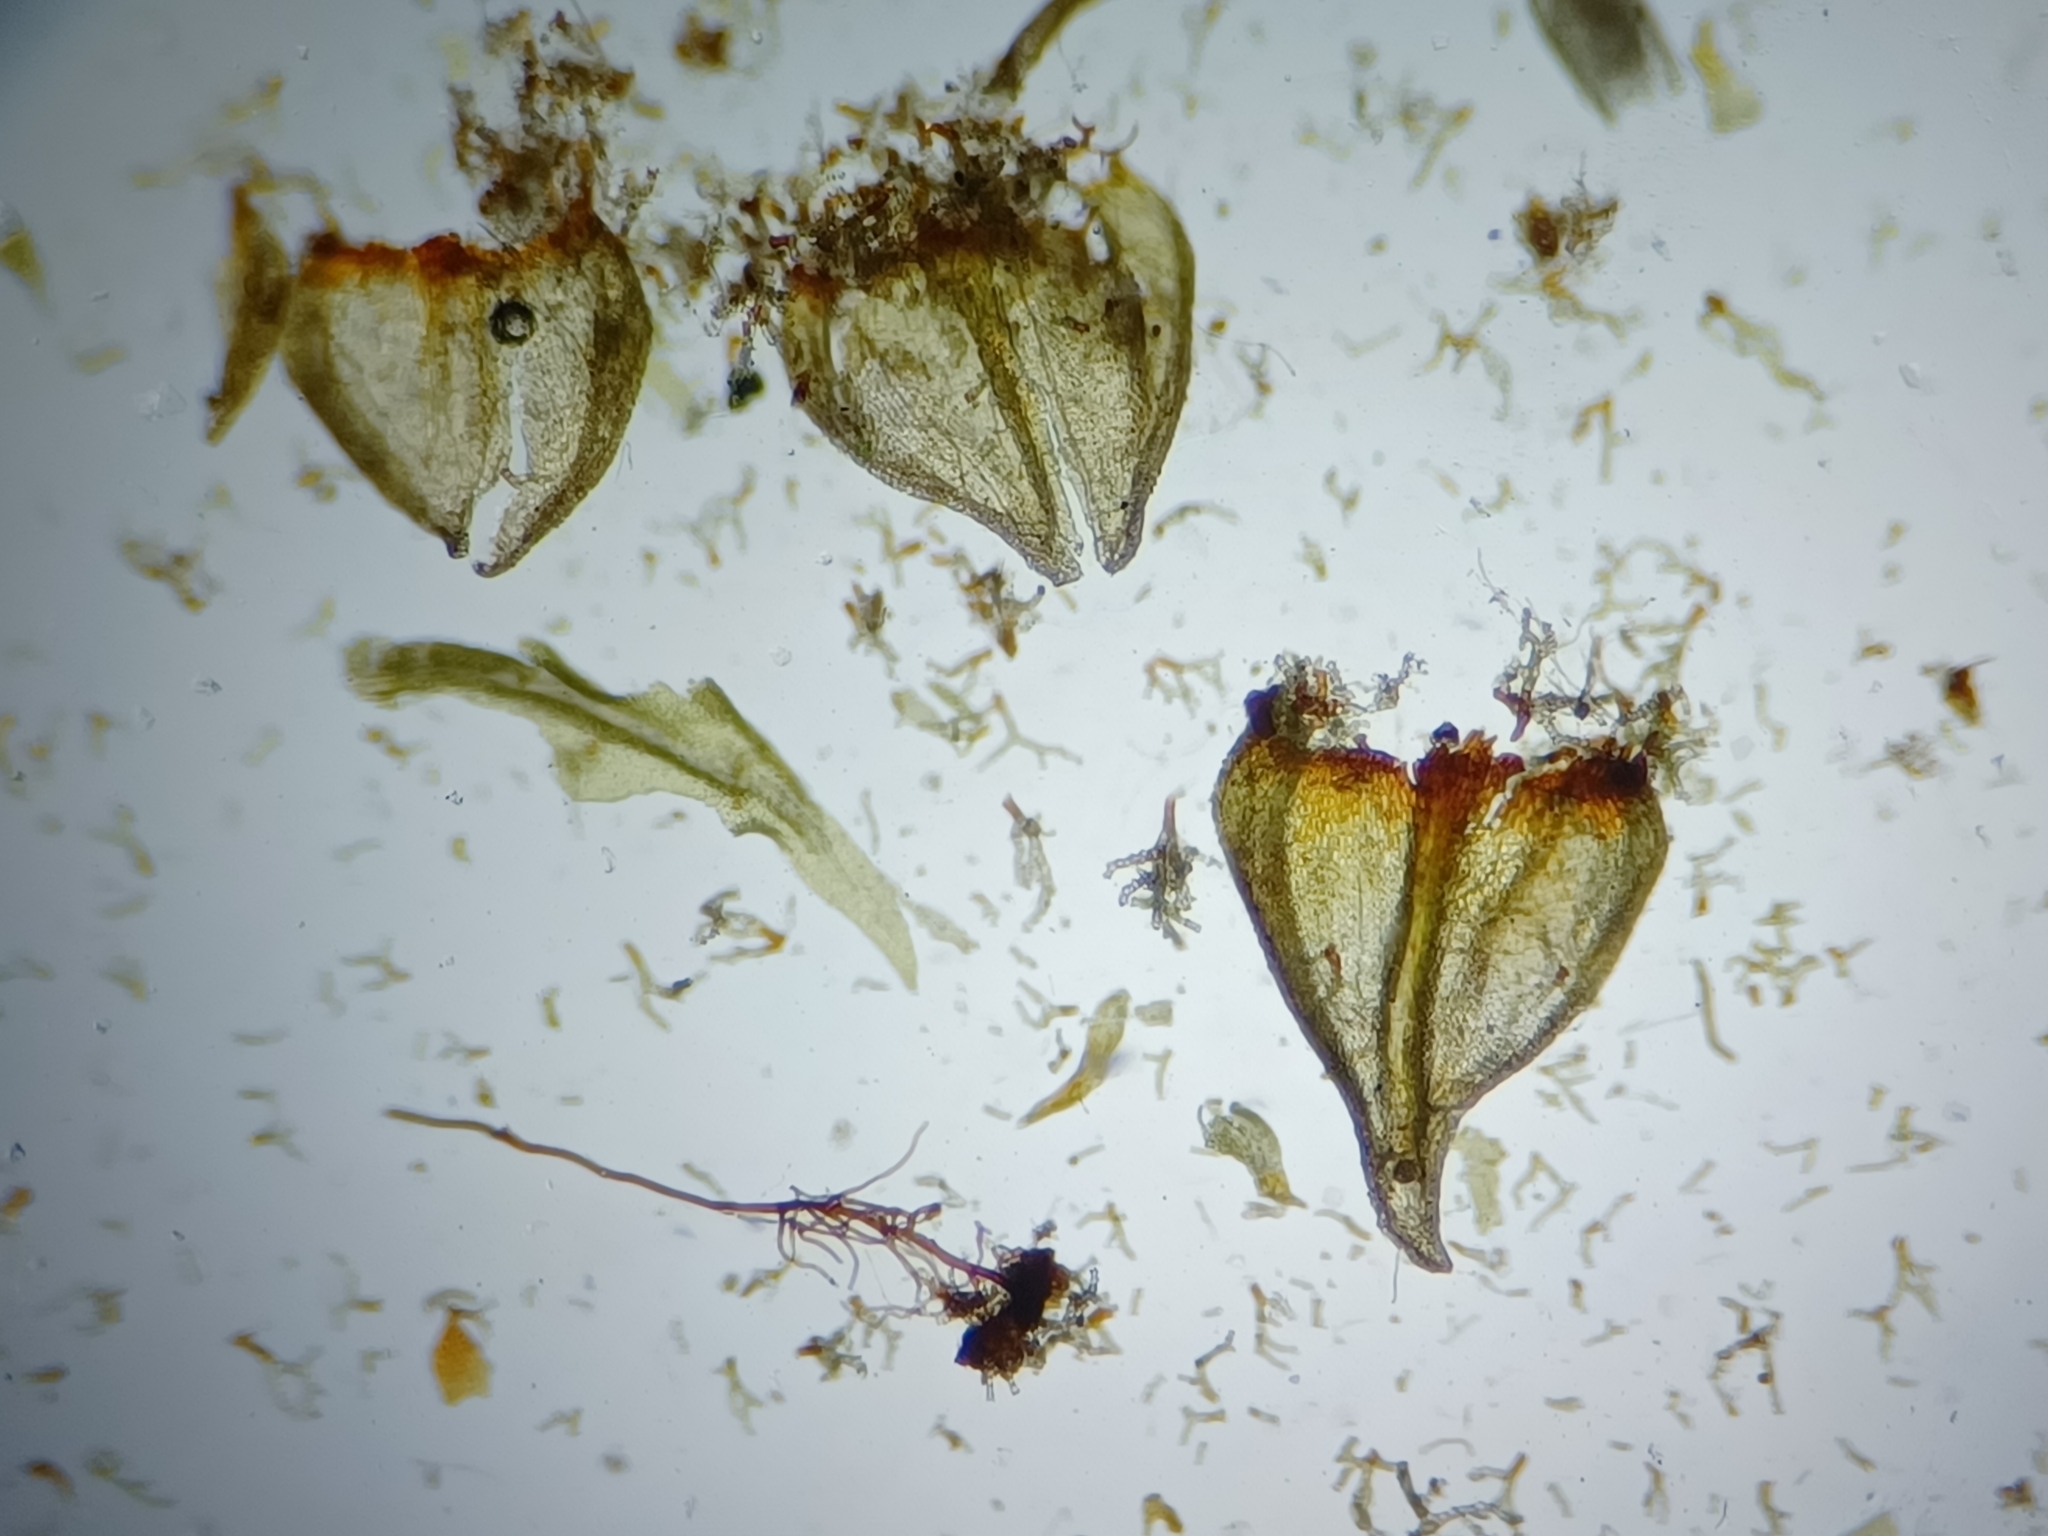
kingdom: Plantae
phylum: Bryophyta
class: Bryopsida
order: Hypnales
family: Thuidiaceae
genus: Thuidium
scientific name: Thuidium delicatulum
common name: Delicate fern moss
